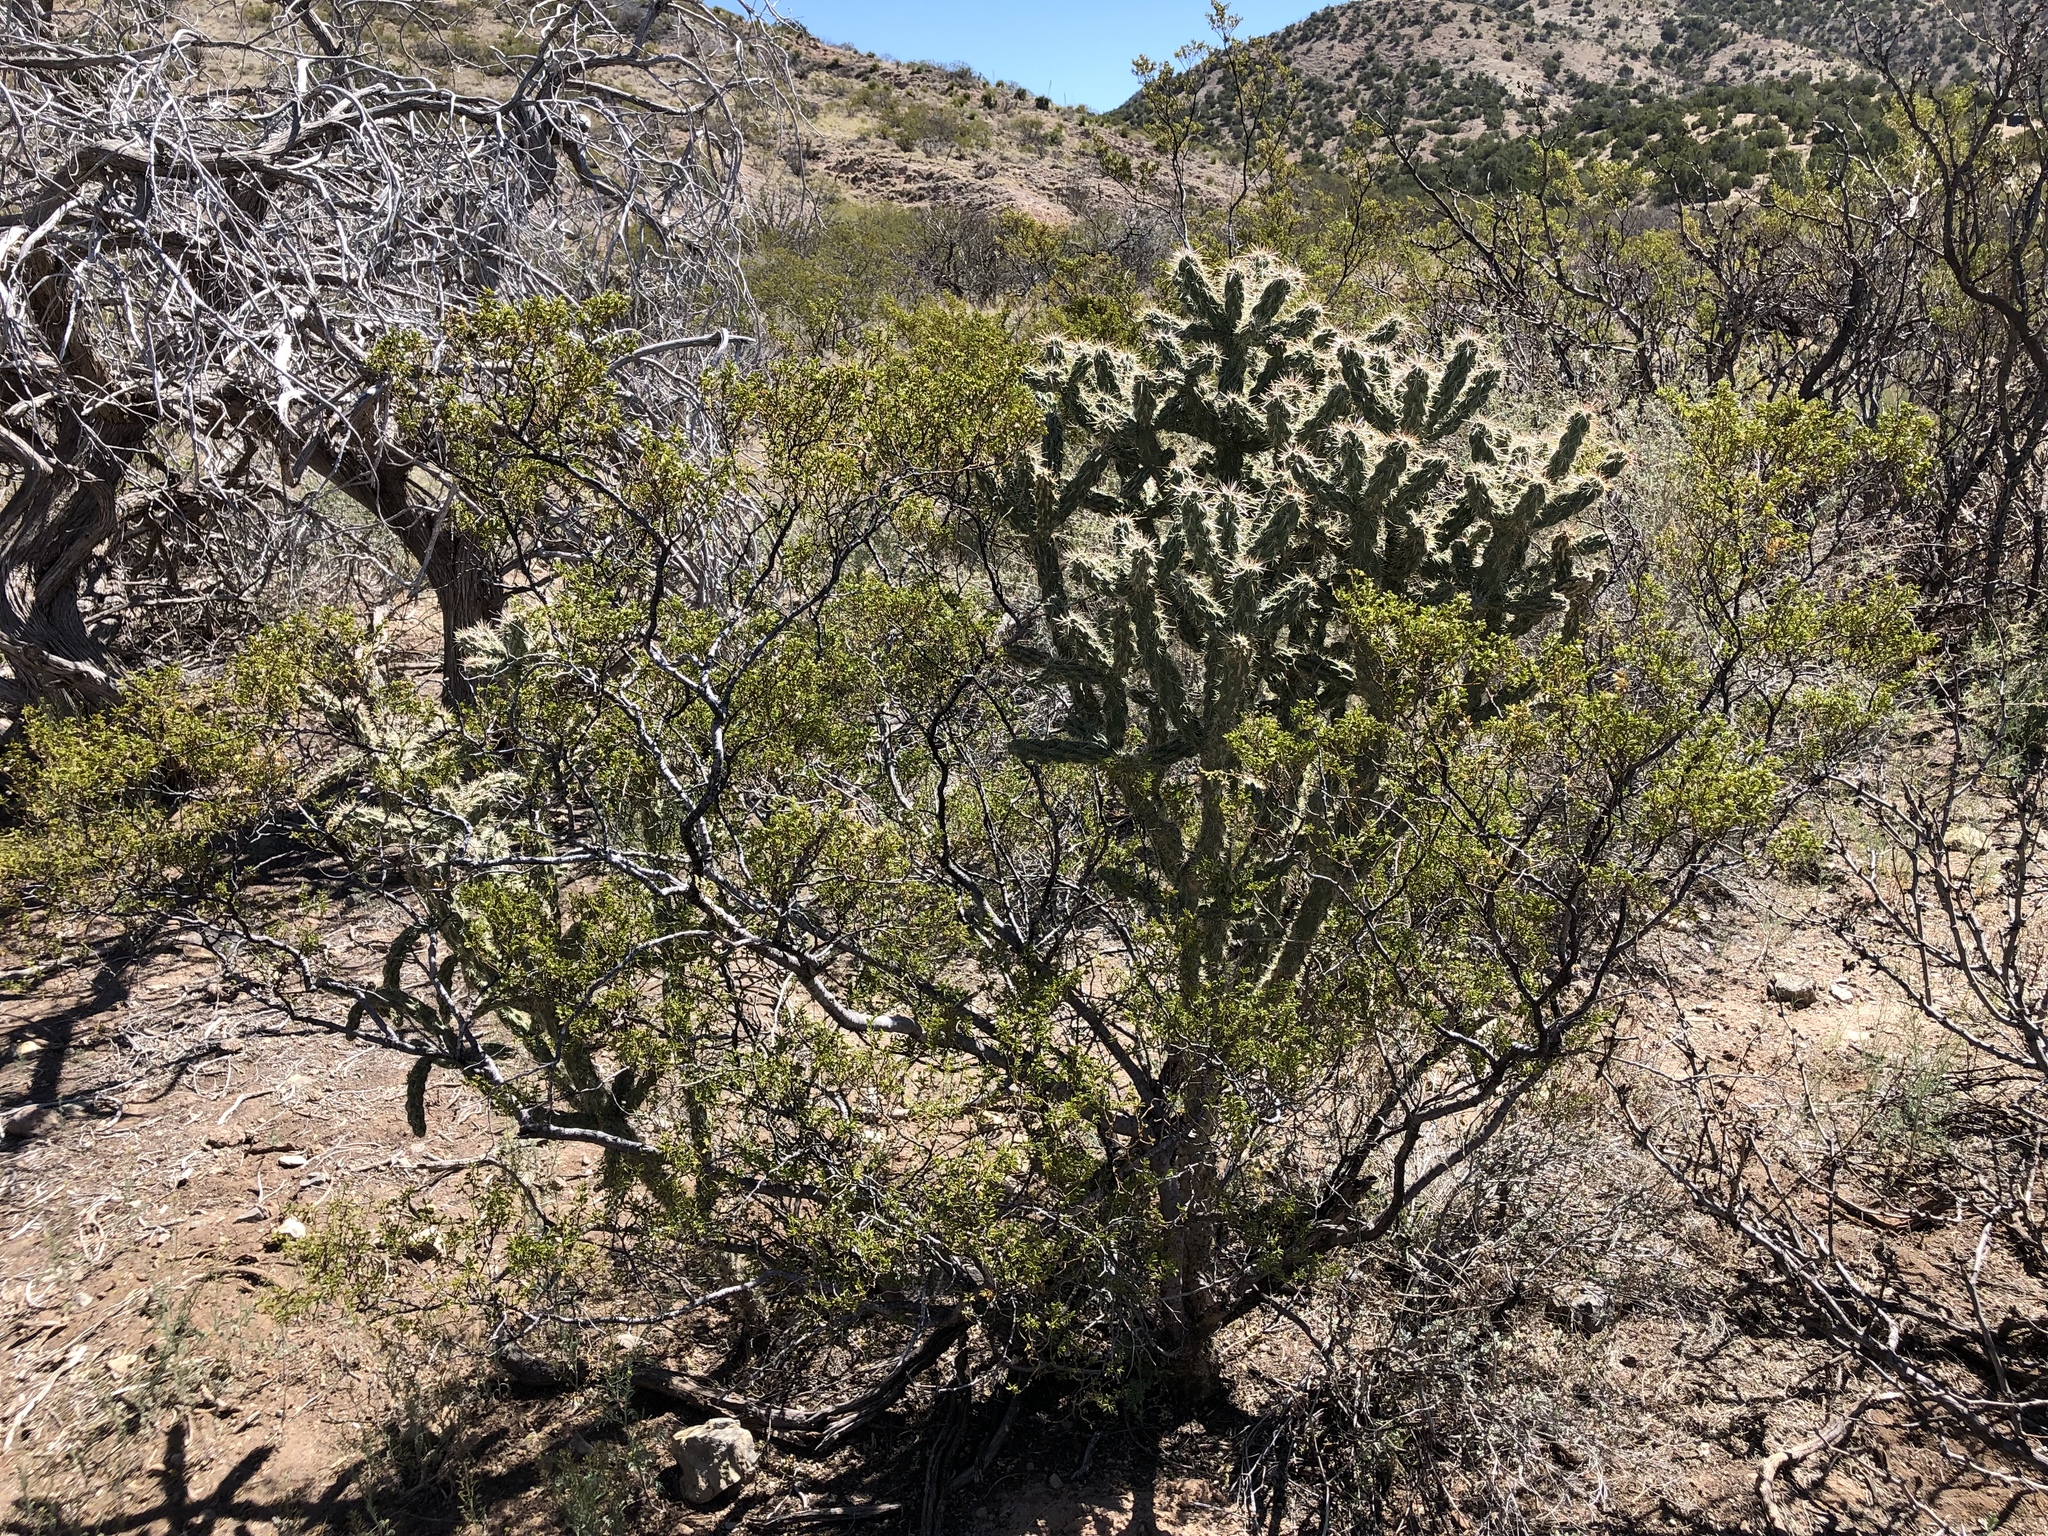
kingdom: Plantae
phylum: Tracheophyta
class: Magnoliopsida
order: Zygophyllales
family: Zygophyllaceae
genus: Larrea
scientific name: Larrea tridentata
